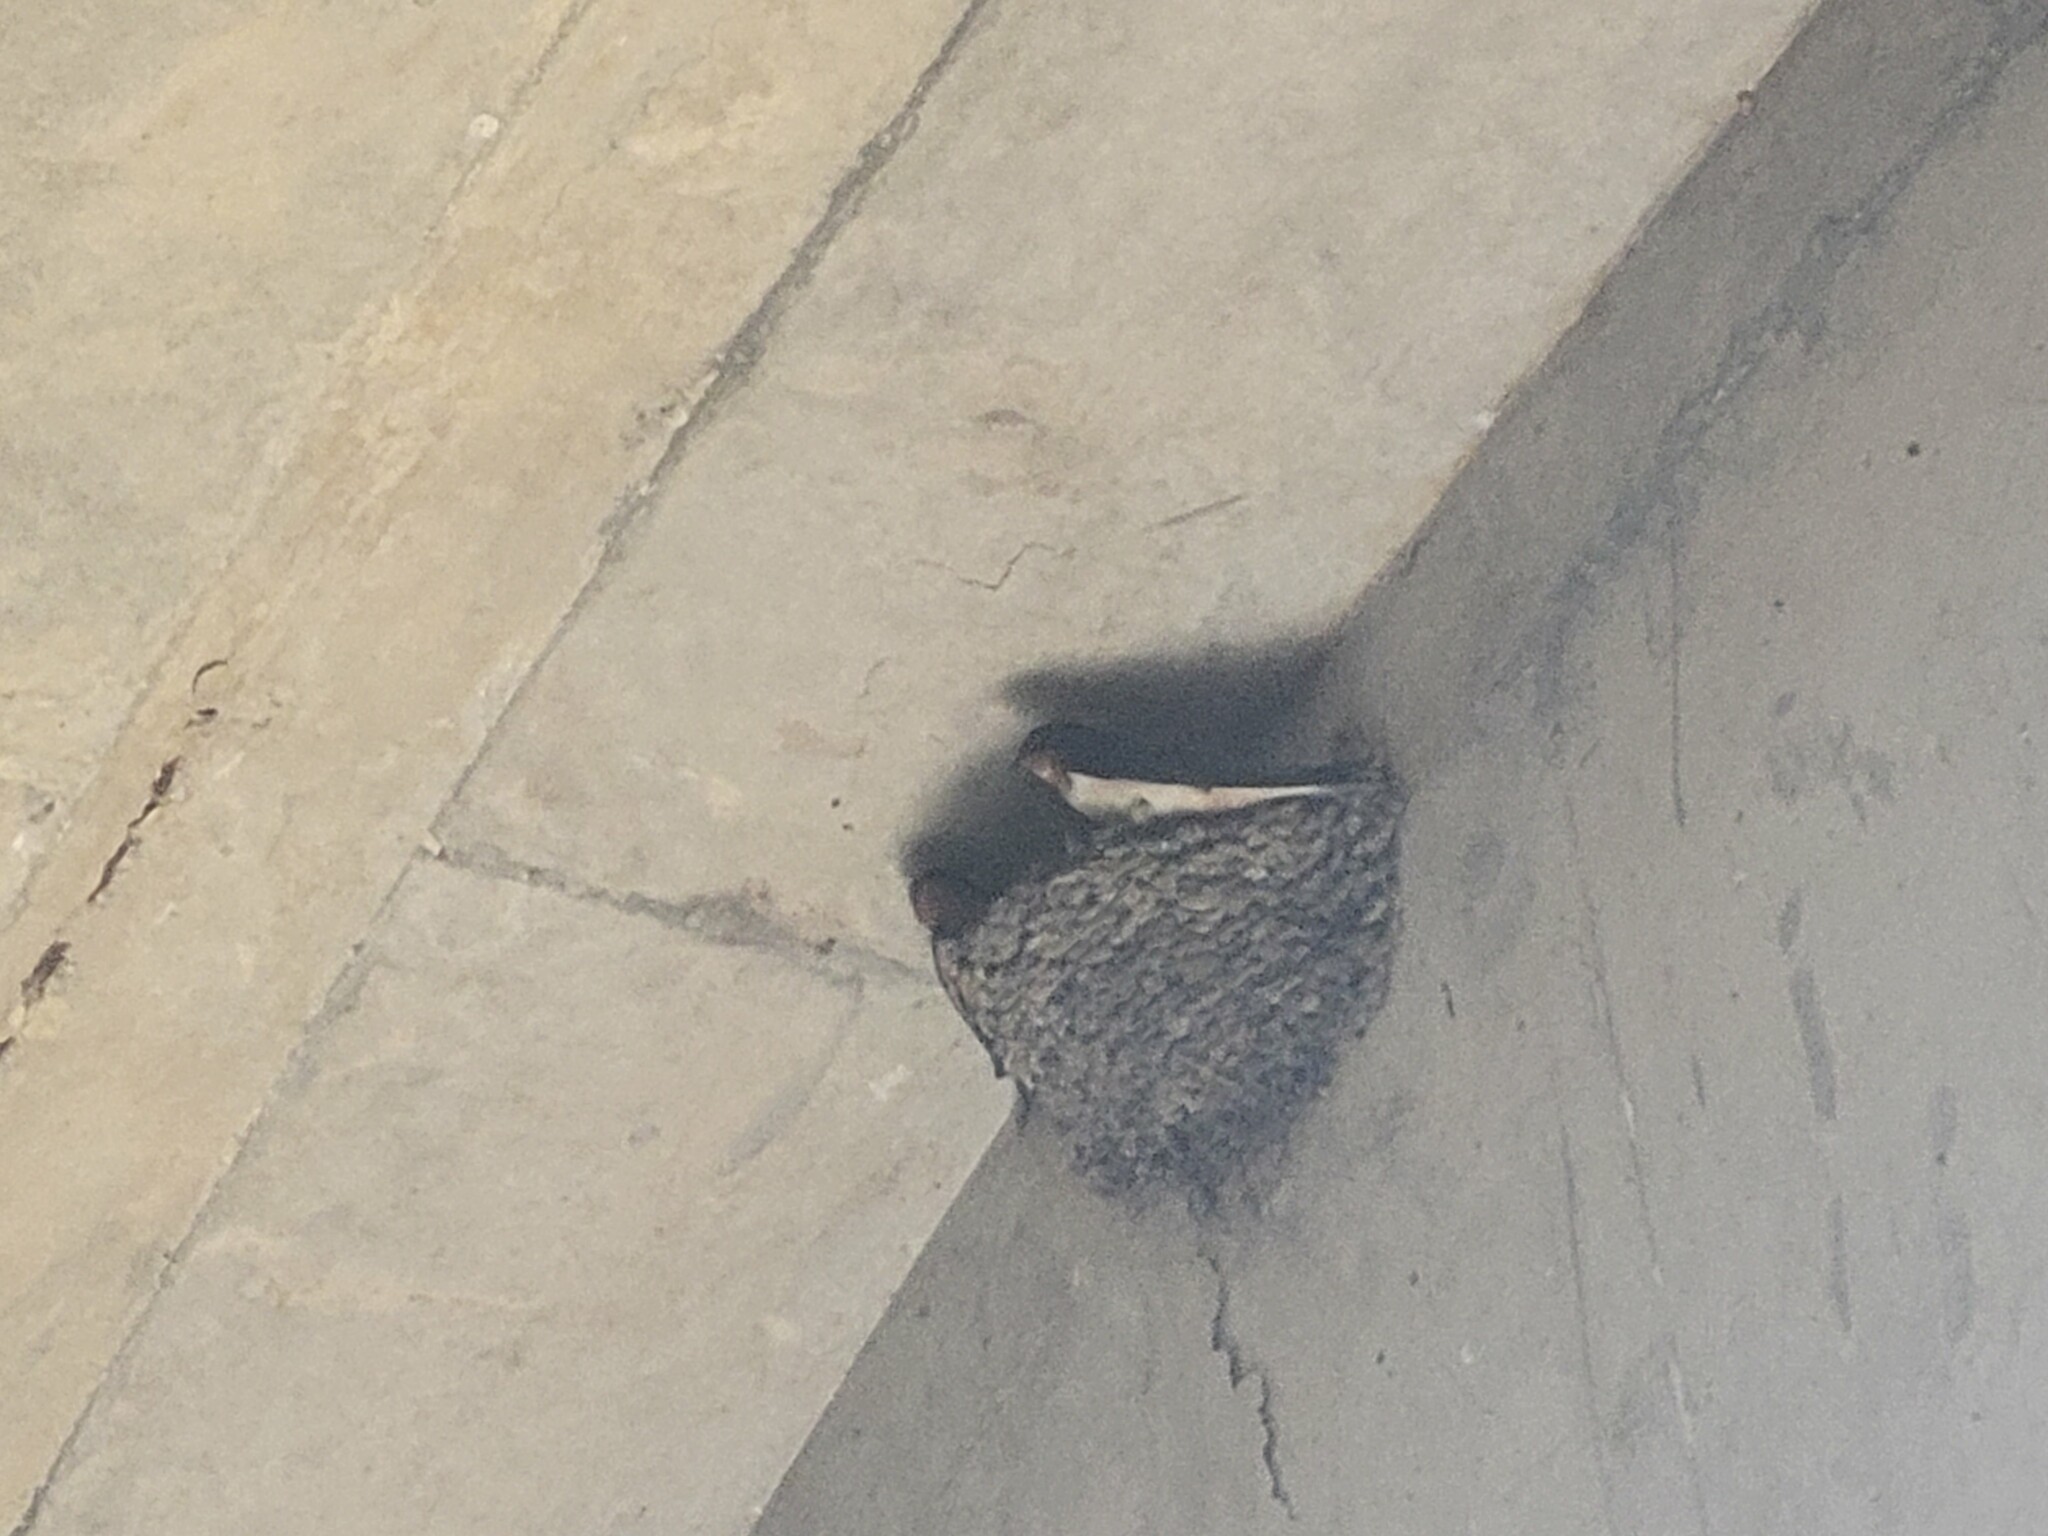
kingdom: Animalia
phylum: Chordata
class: Aves
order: Passeriformes
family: Hirundinidae
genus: Hirundo
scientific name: Hirundo rustica
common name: Barn swallow
